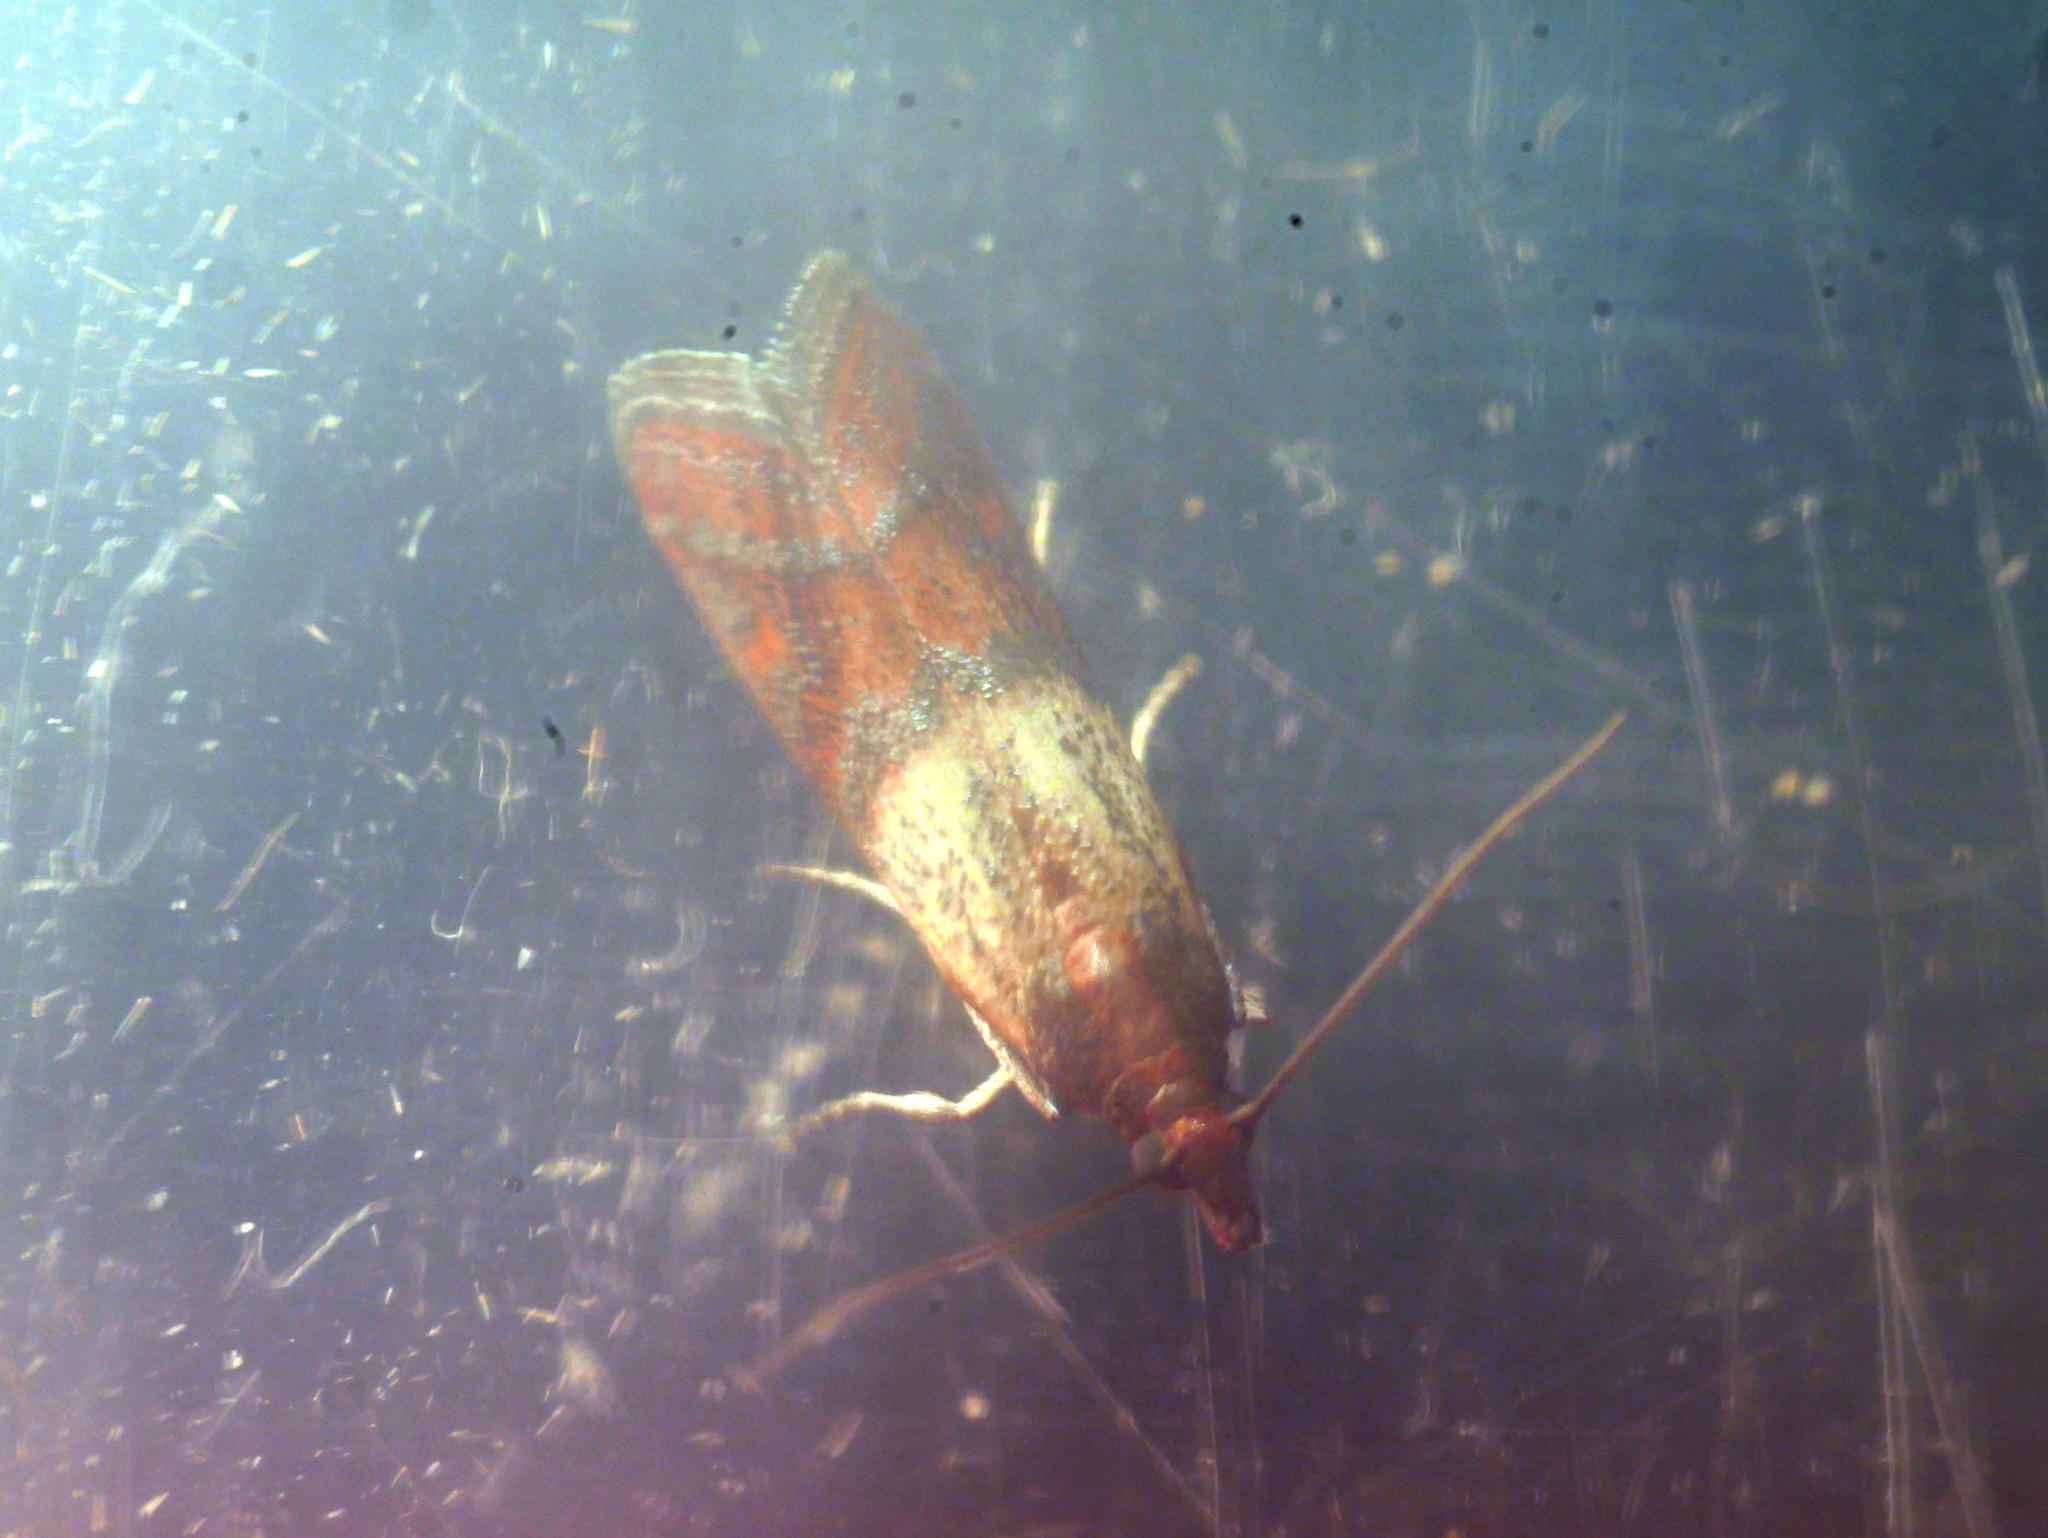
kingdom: Animalia
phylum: Arthropoda
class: Insecta
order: Lepidoptera
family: Pyralidae
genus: Plodia
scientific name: Plodia interpunctella
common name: Indian meal moth
